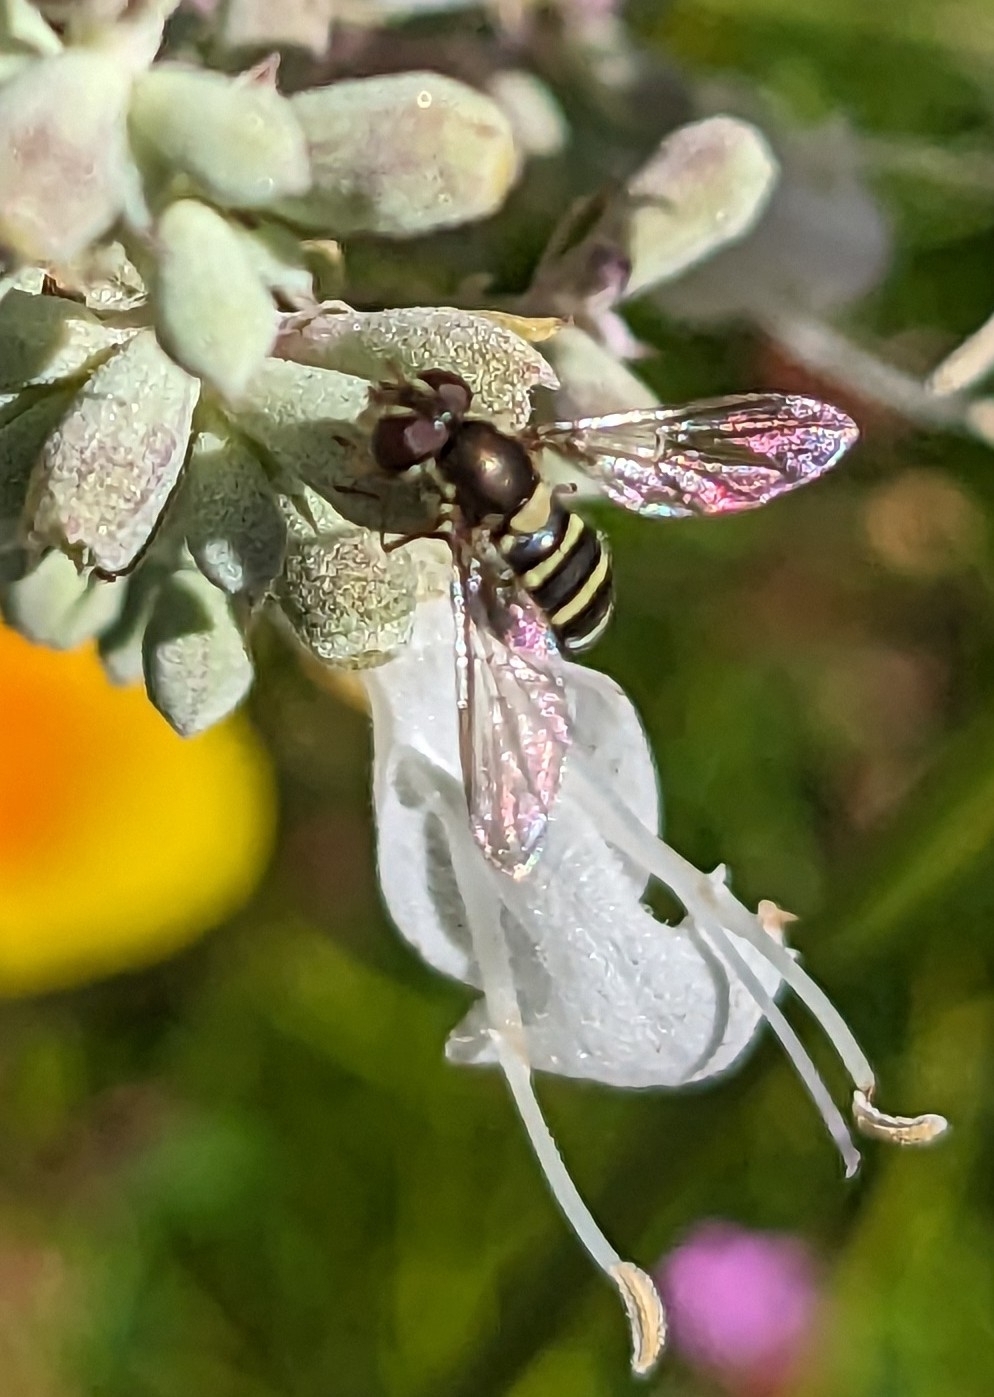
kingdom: Animalia
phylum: Arthropoda
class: Insecta
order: Diptera
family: Syrphidae
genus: Fazia
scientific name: Fazia micrura
